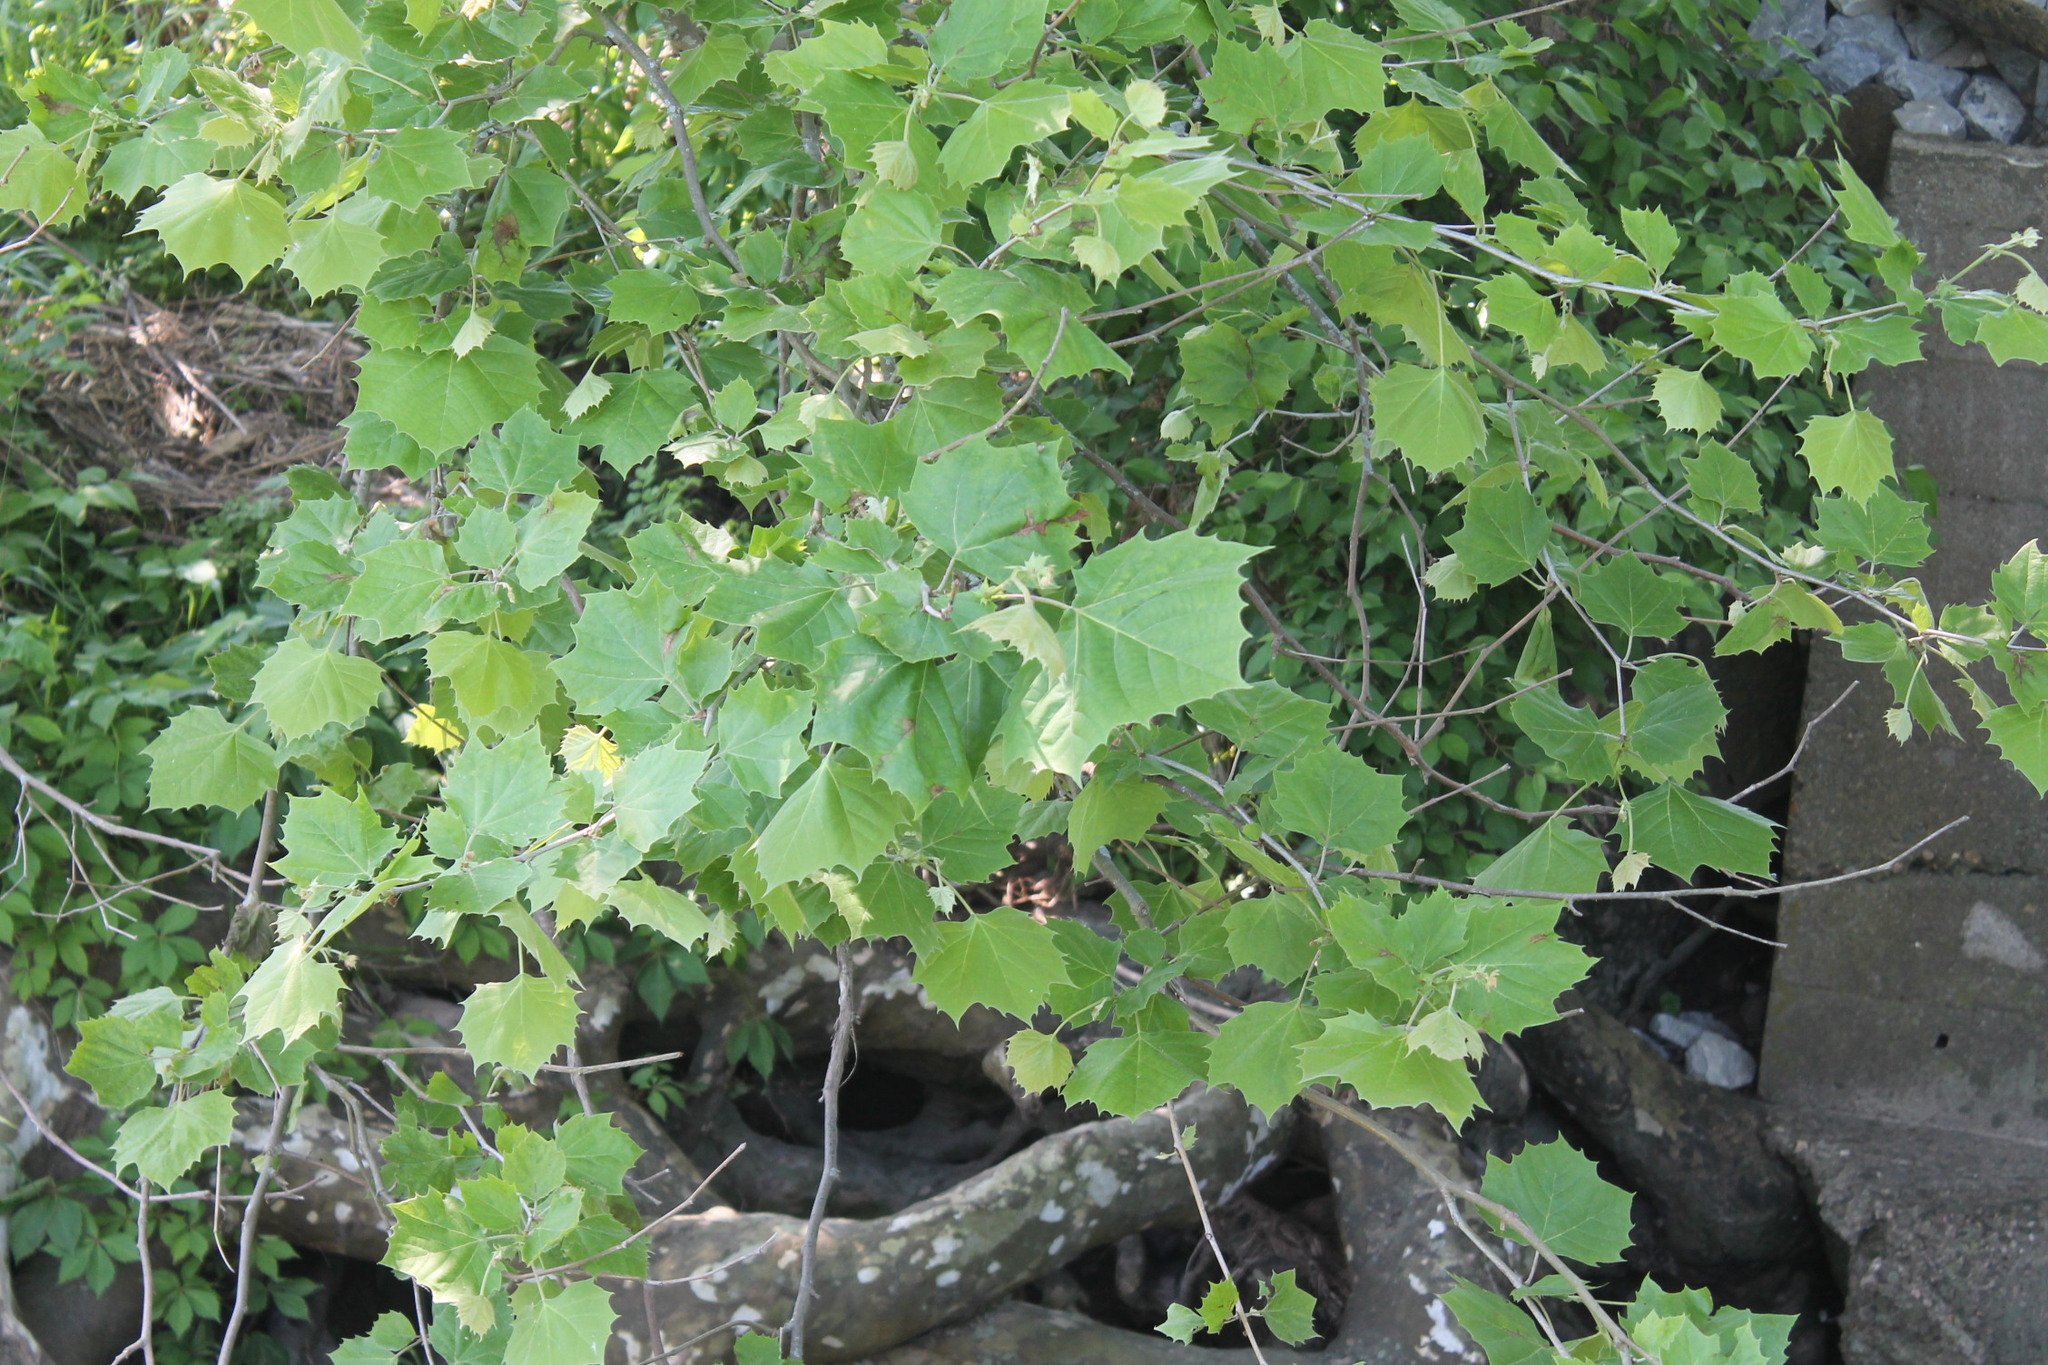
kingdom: Plantae
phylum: Tracheophyta
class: Magnoliopsida
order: Proteales
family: Platanaceae
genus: Platanus
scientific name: Platanus occidentalis
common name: American sycamore
